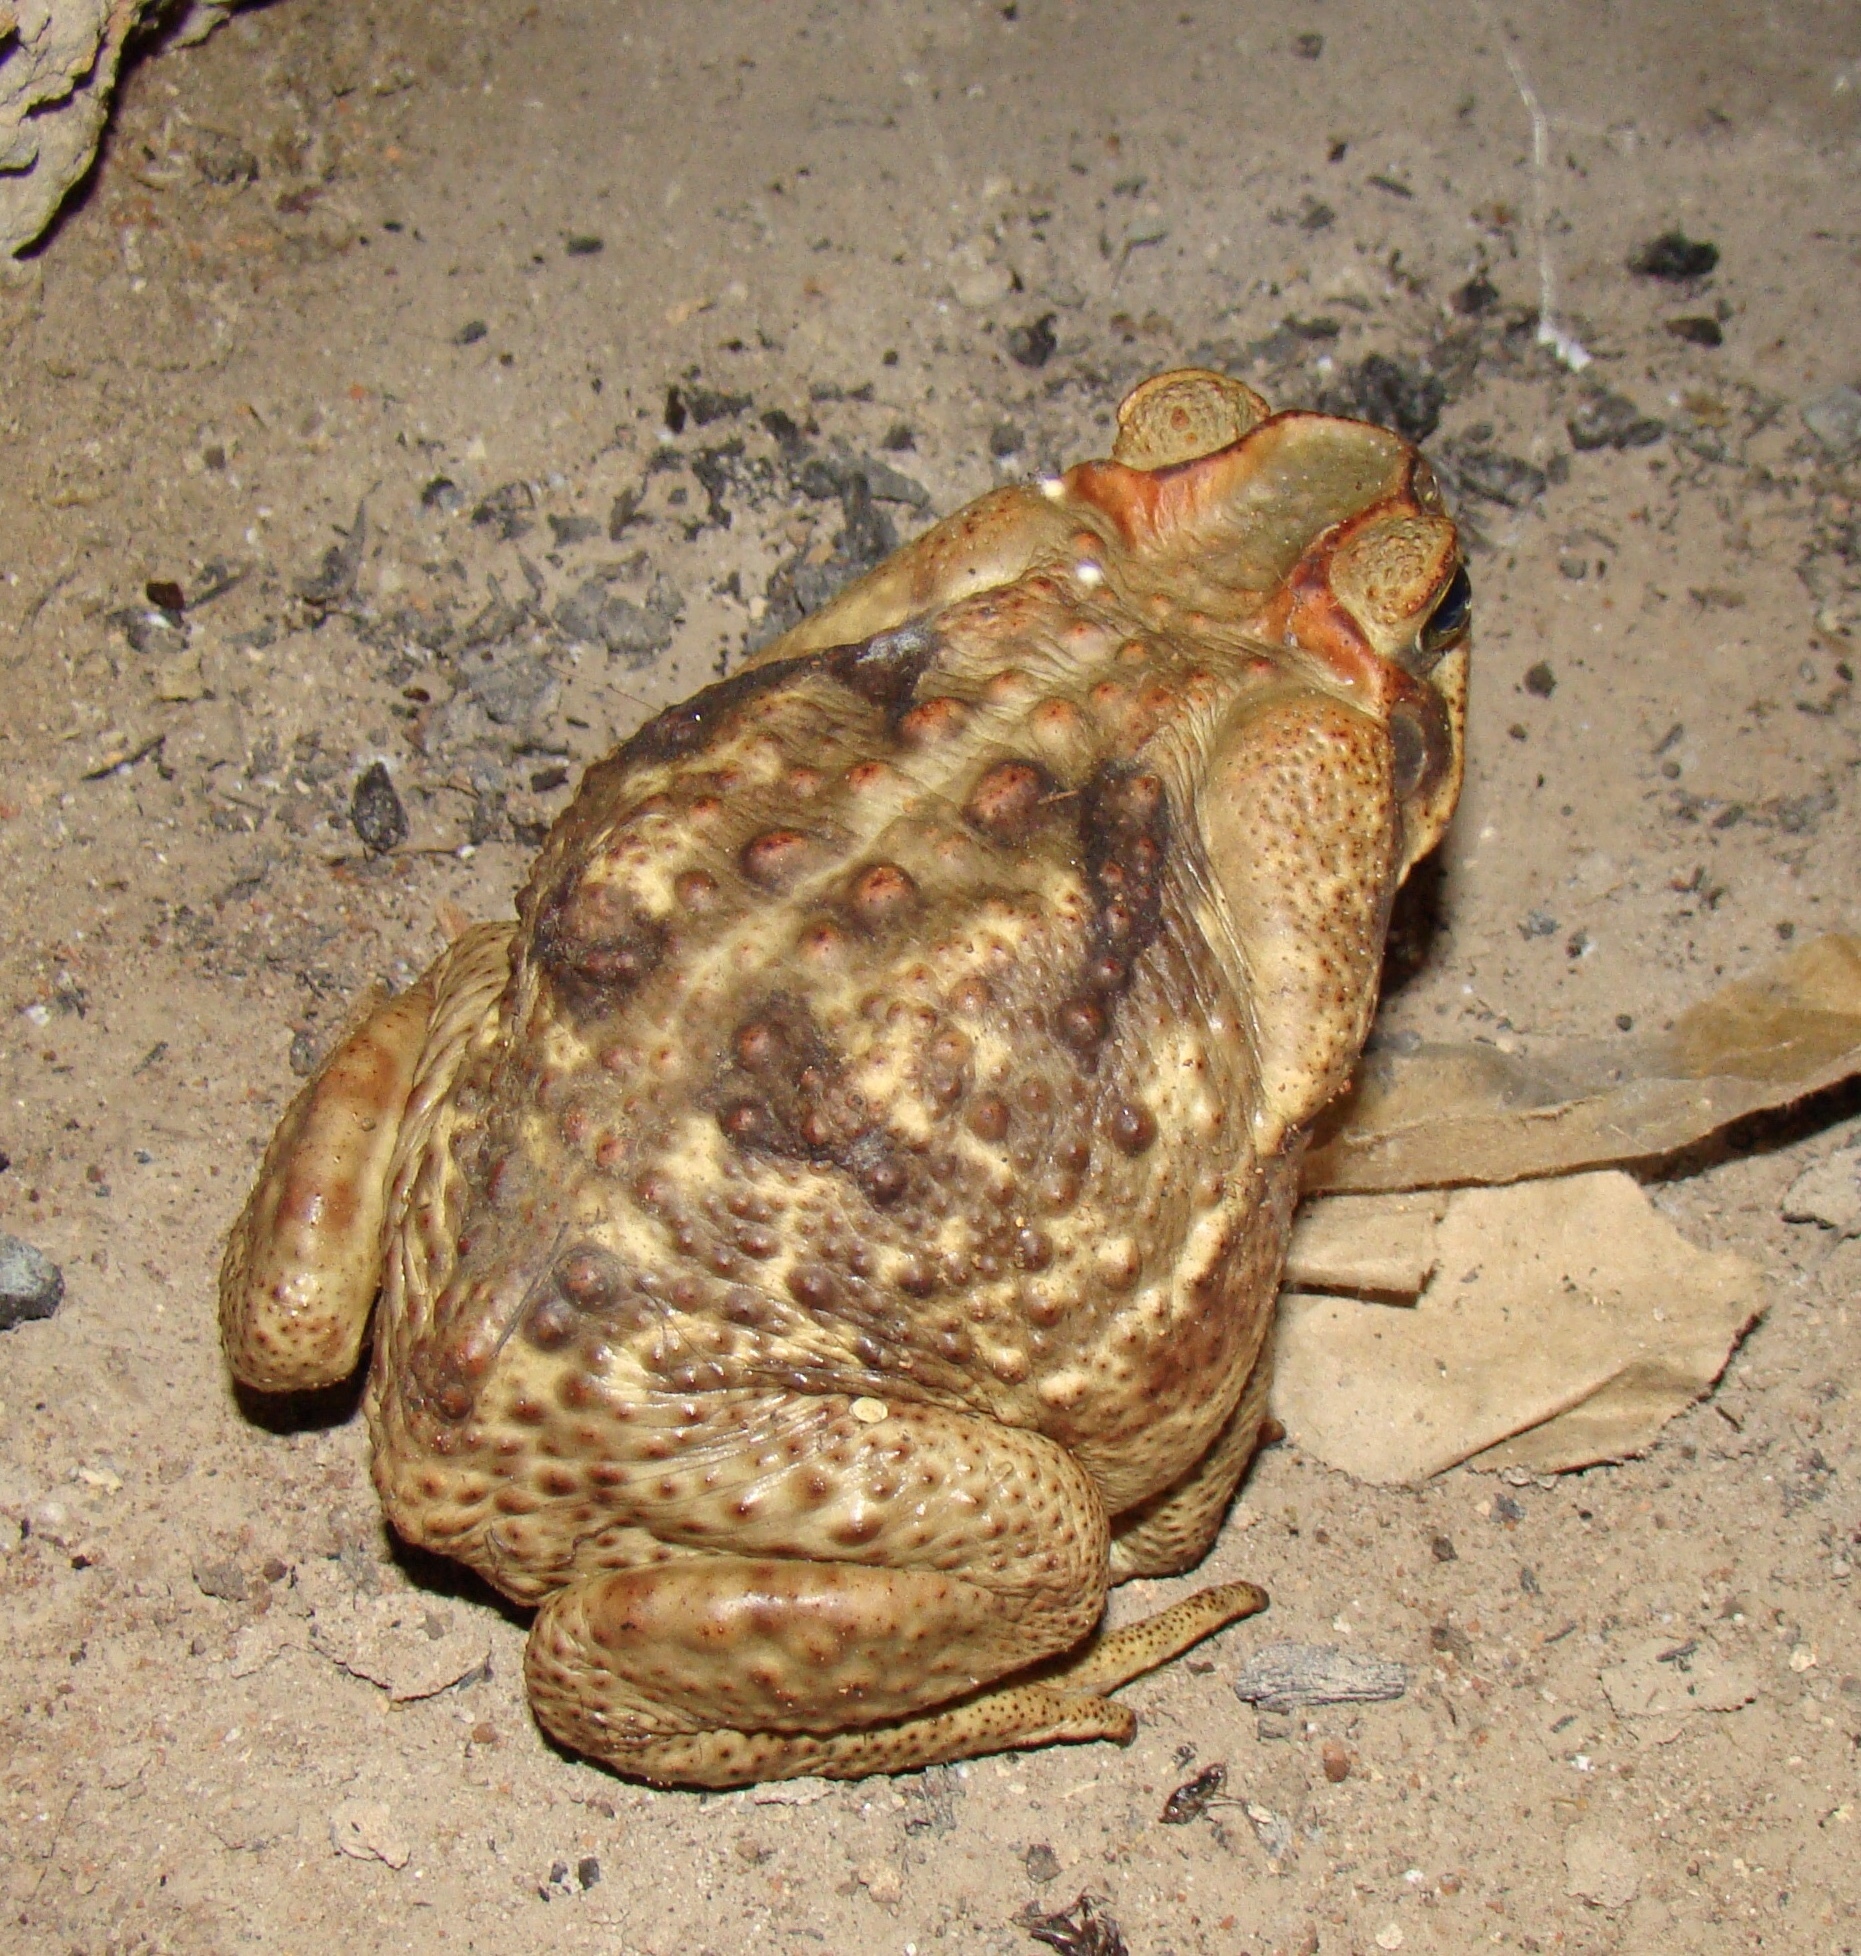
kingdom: Animalia
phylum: Chordata
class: Amphibia
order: Anura
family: Bufonidae
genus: Rhinella
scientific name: Rhinella diptycha
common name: Cope's toad
